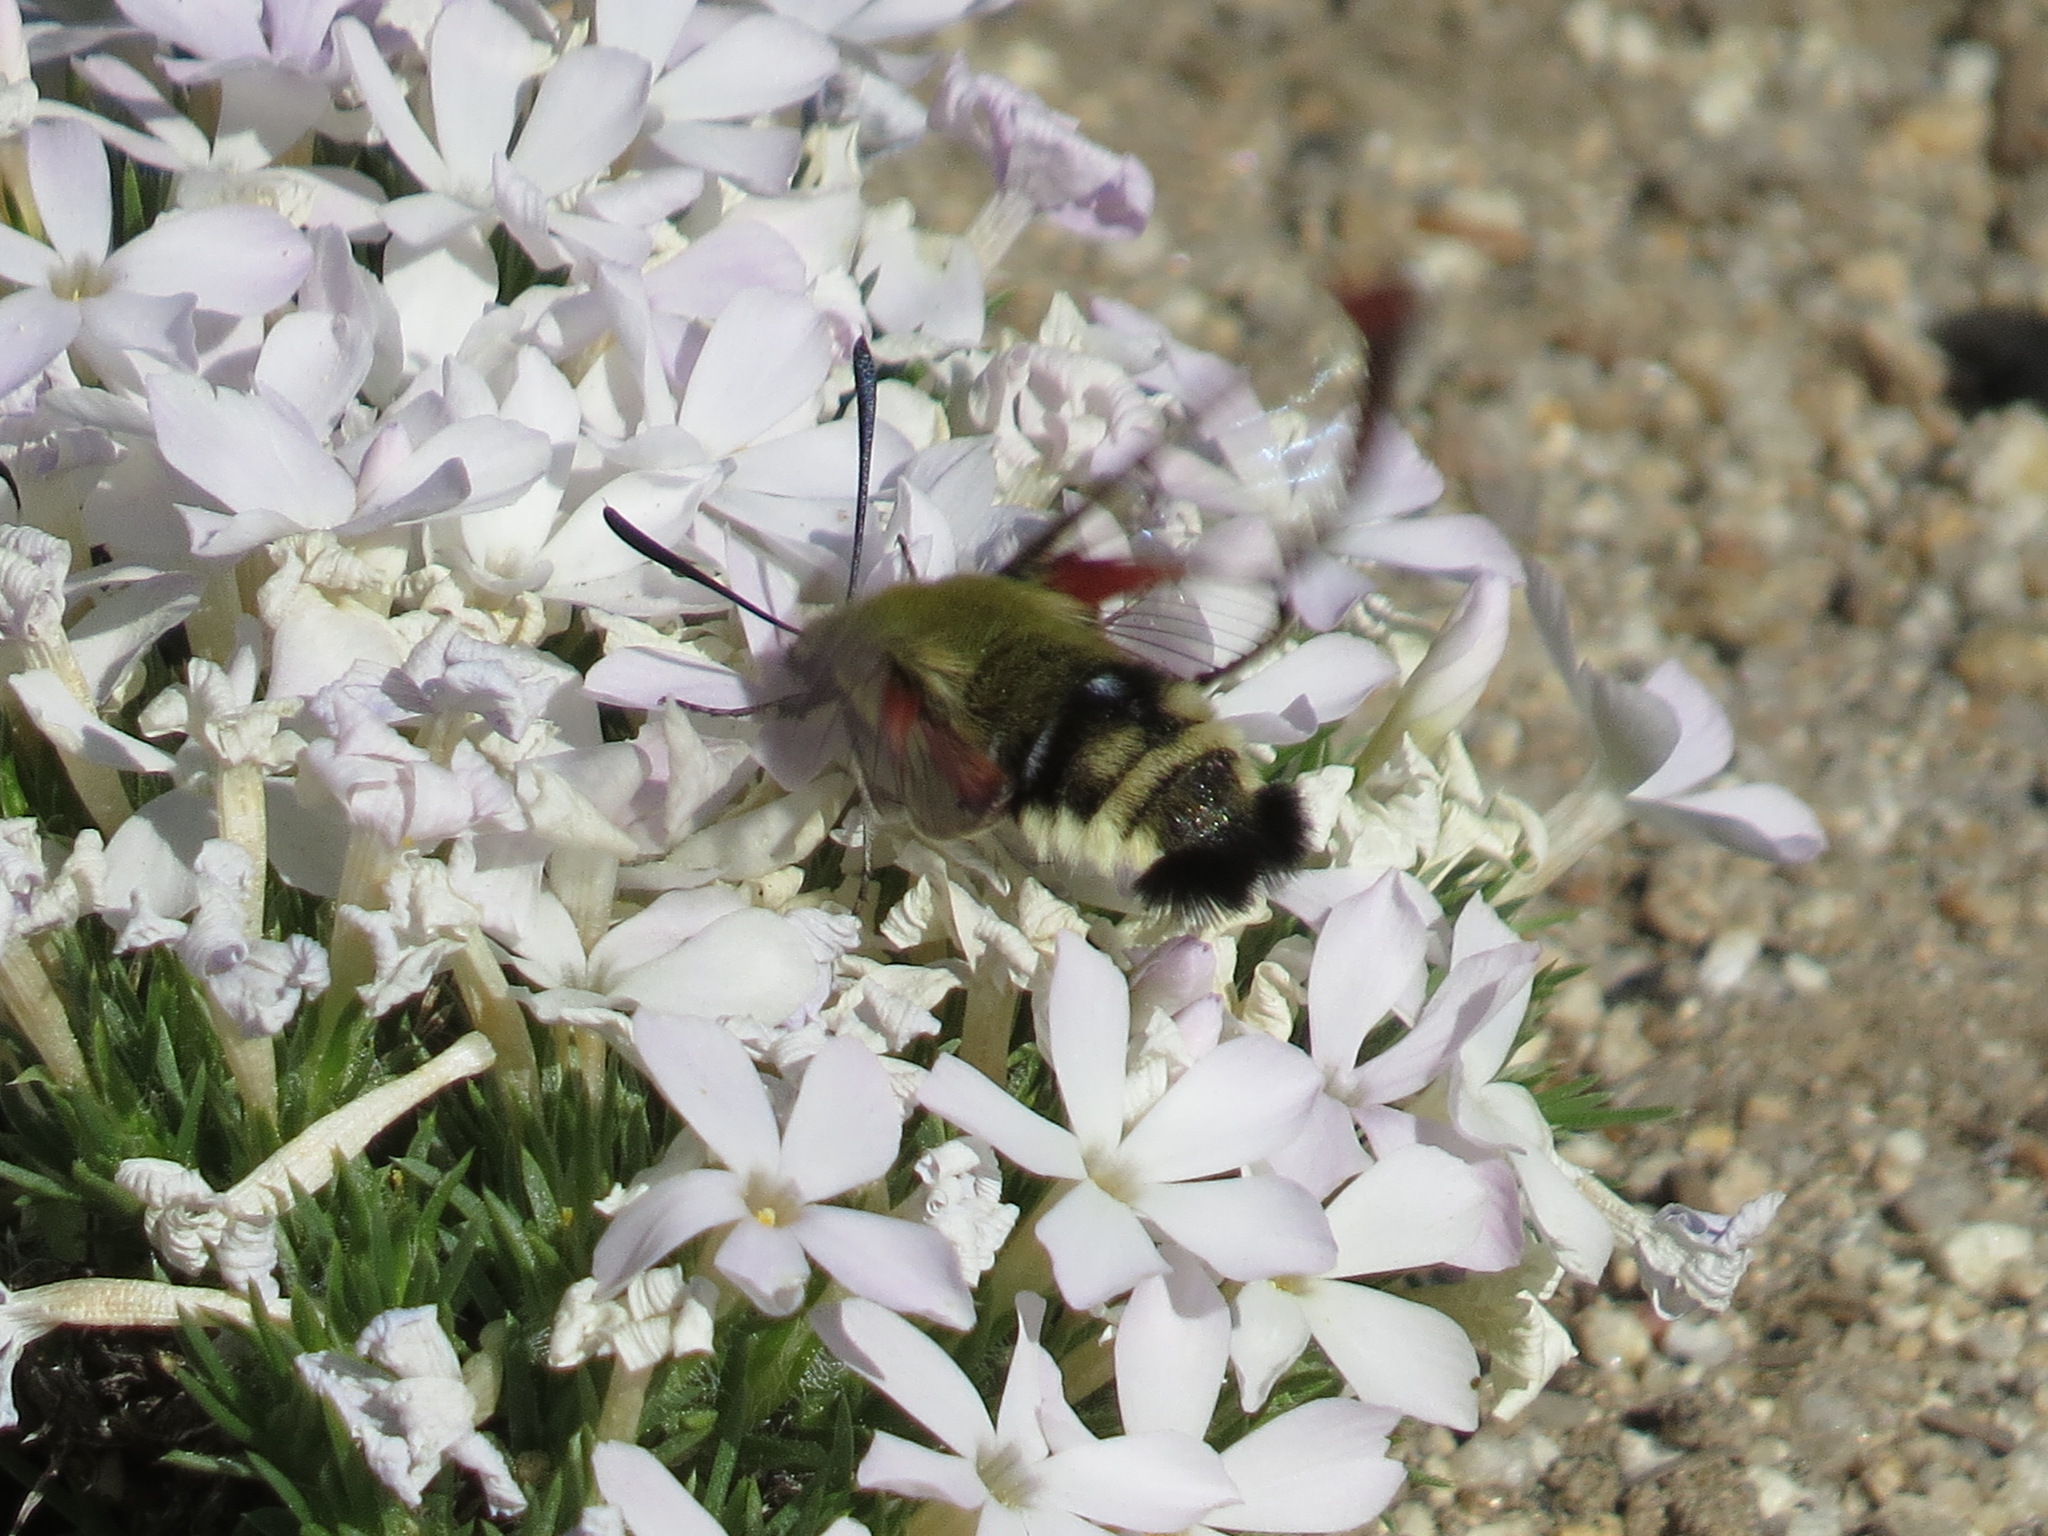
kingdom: Animalia
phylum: Arthropoda
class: Insecta
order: Lepidoptera
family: Sphingidae
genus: Hemaris
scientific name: Hemaris thetis
